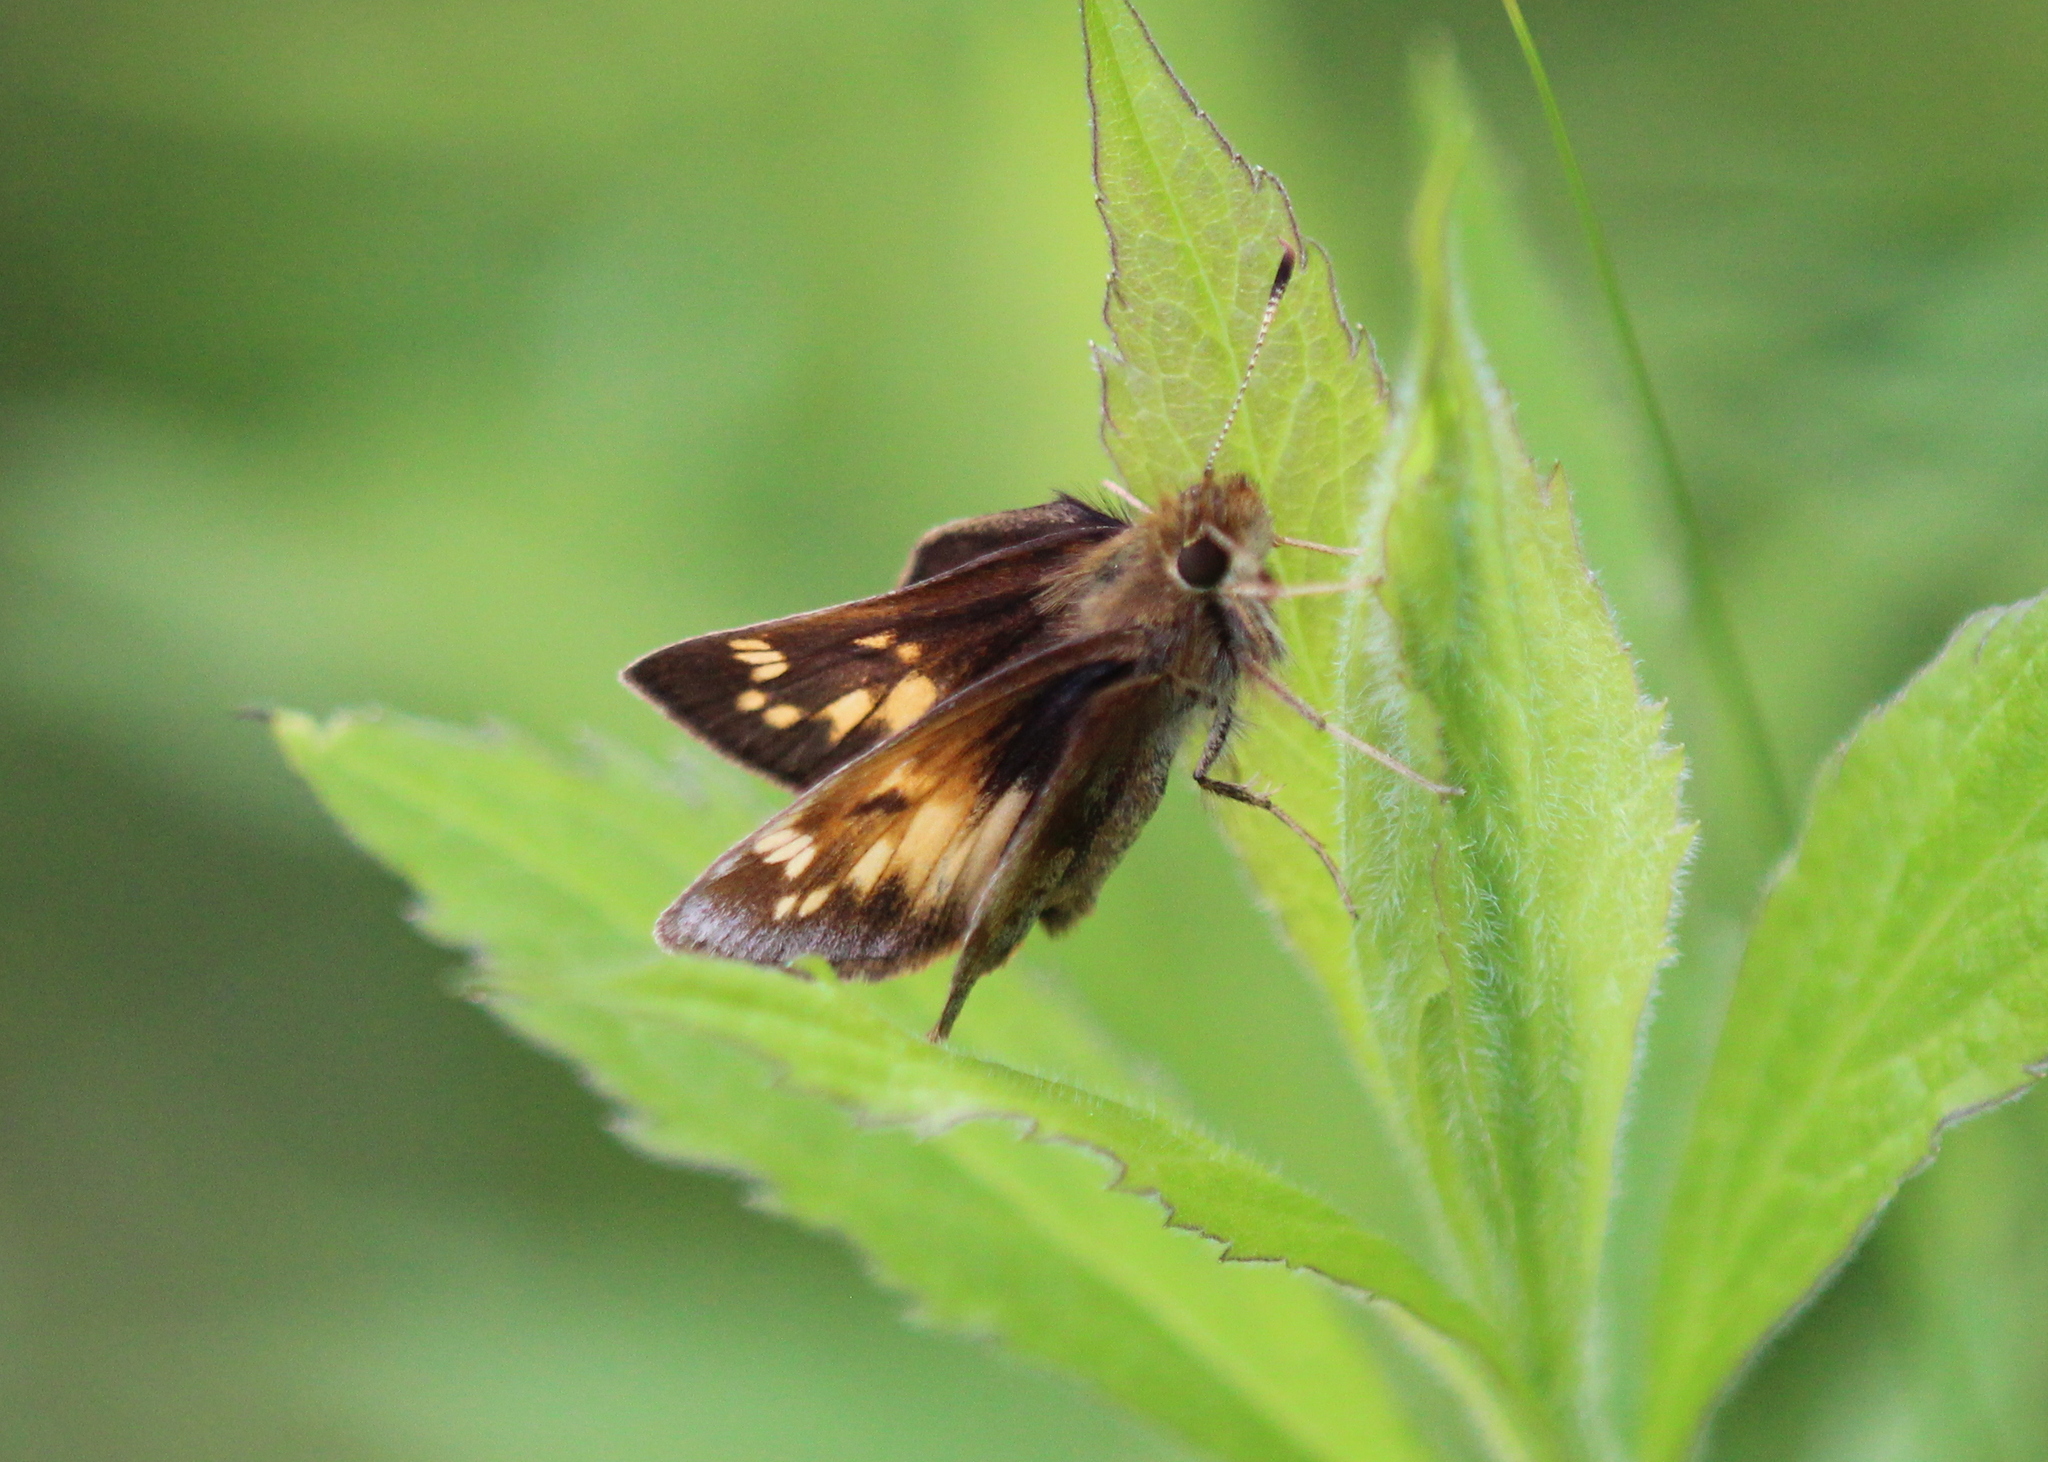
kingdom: Animalia
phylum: Arthropoda
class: Insecta
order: Lepidoptera
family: Hesperiidae
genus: Lon
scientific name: Lon hobomok
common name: Hobomok skipper
